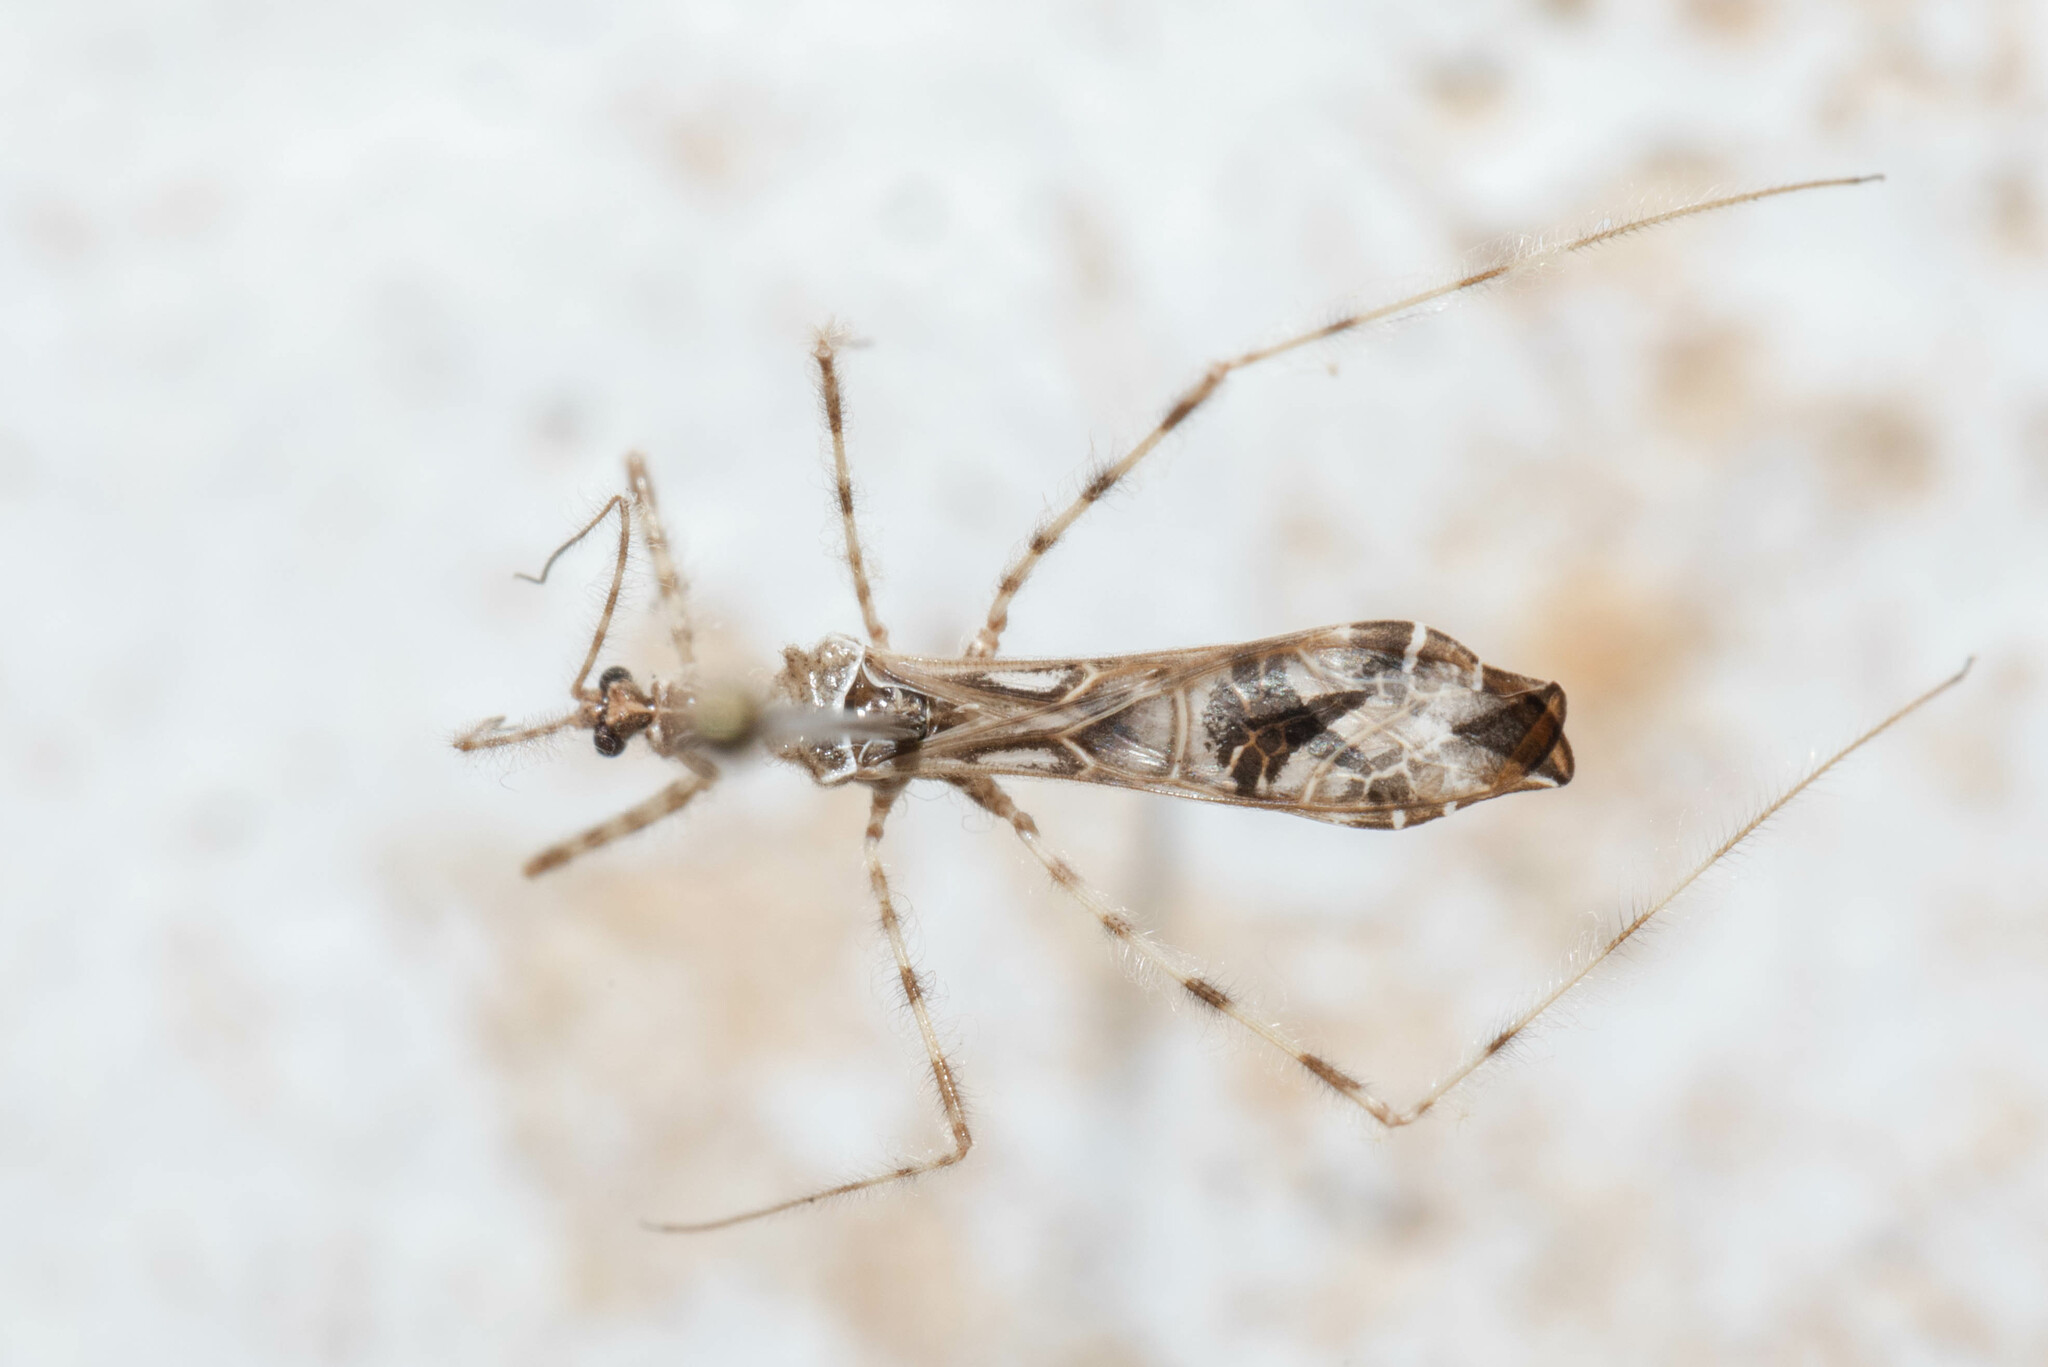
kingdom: Animalia
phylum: Arthropoda
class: Insecta
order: Hemiptera
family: Reduviidae
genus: Stenolemus
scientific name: Stenolemus fraterculus
